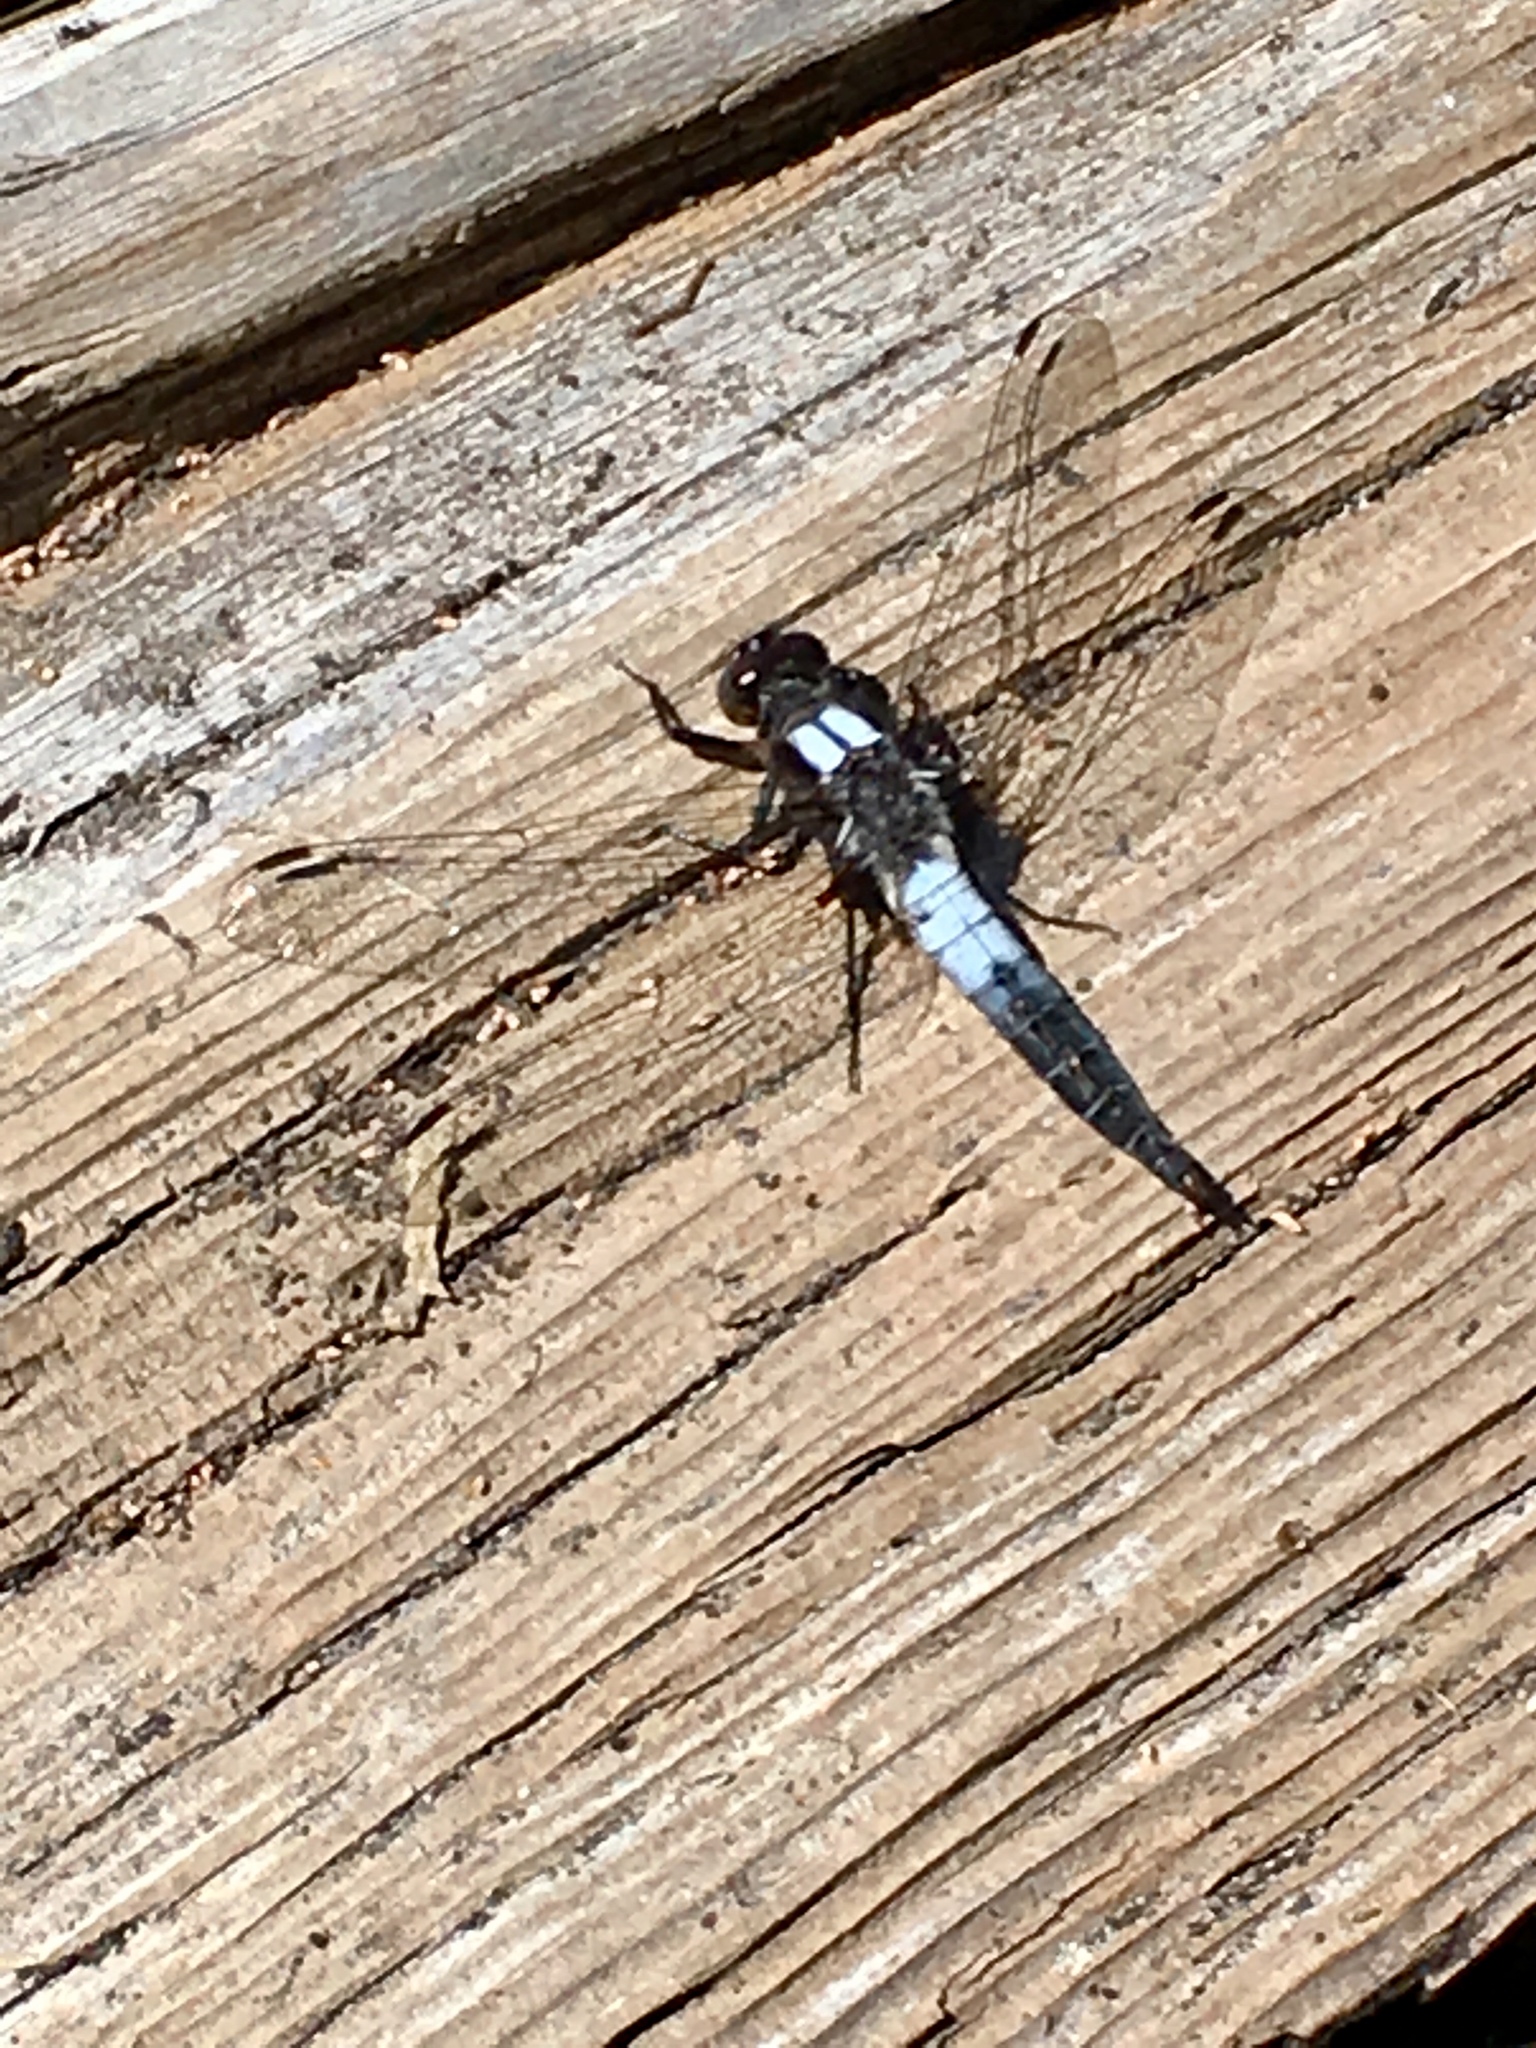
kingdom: Animalia
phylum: Arthropoda
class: Insecta
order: Odonata
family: Libellulidae
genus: Ladona
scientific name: Ladona julia
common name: Chalk-fronted corporal
